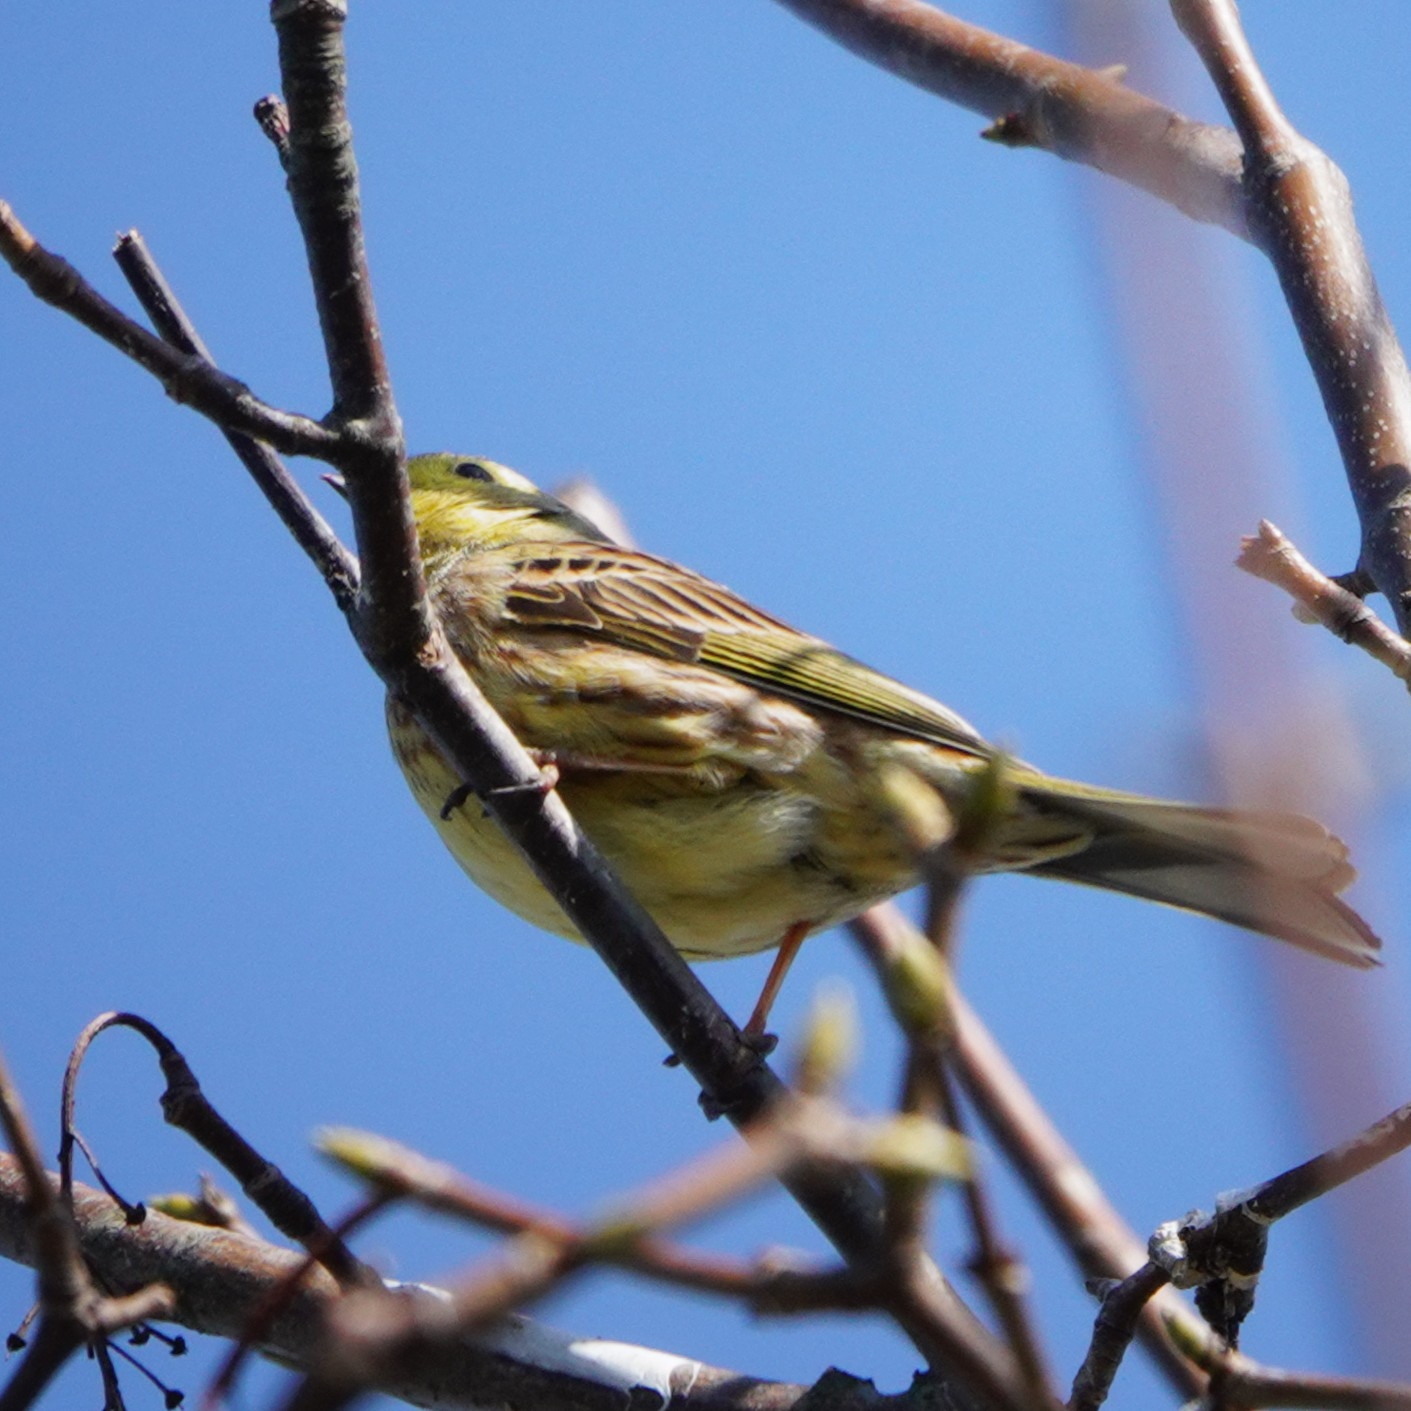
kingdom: Animalia
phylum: Chordata
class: Aves
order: Passeriformes
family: Emberizidae
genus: Emberiza
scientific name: Emberiza citrinella
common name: Yellowhammer
